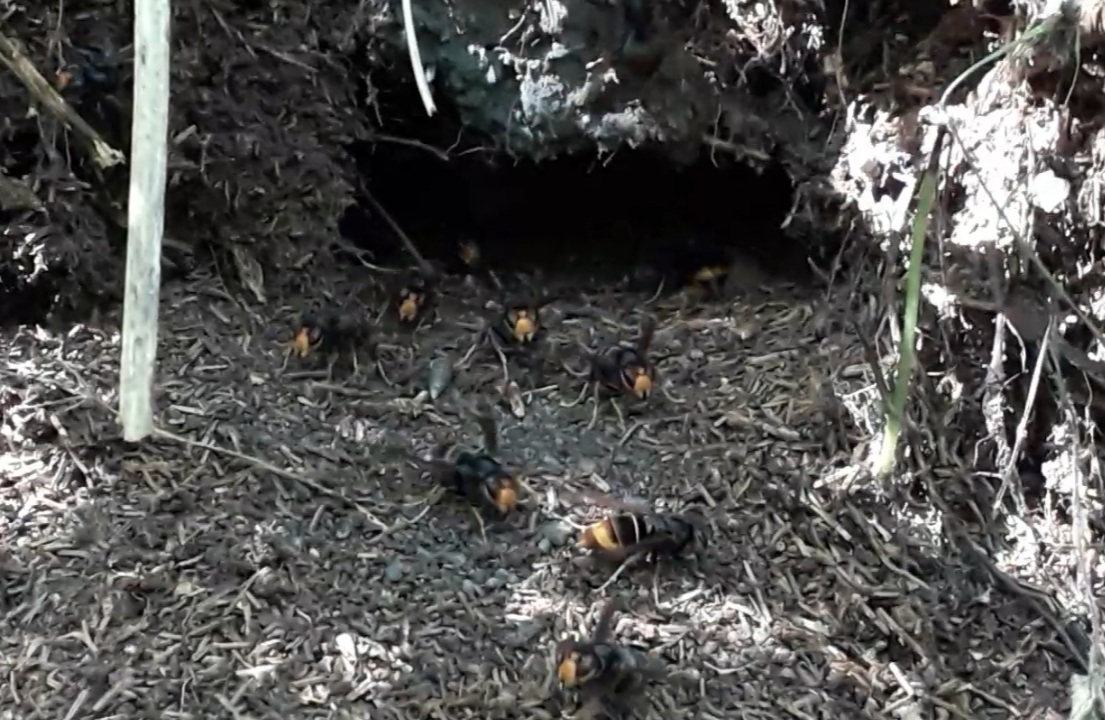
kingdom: Animalia
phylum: Arthropoda
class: Insecta
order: Hymenoptera
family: Vespidae
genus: Vespa
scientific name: Vespa velutina
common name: Asian hornet
